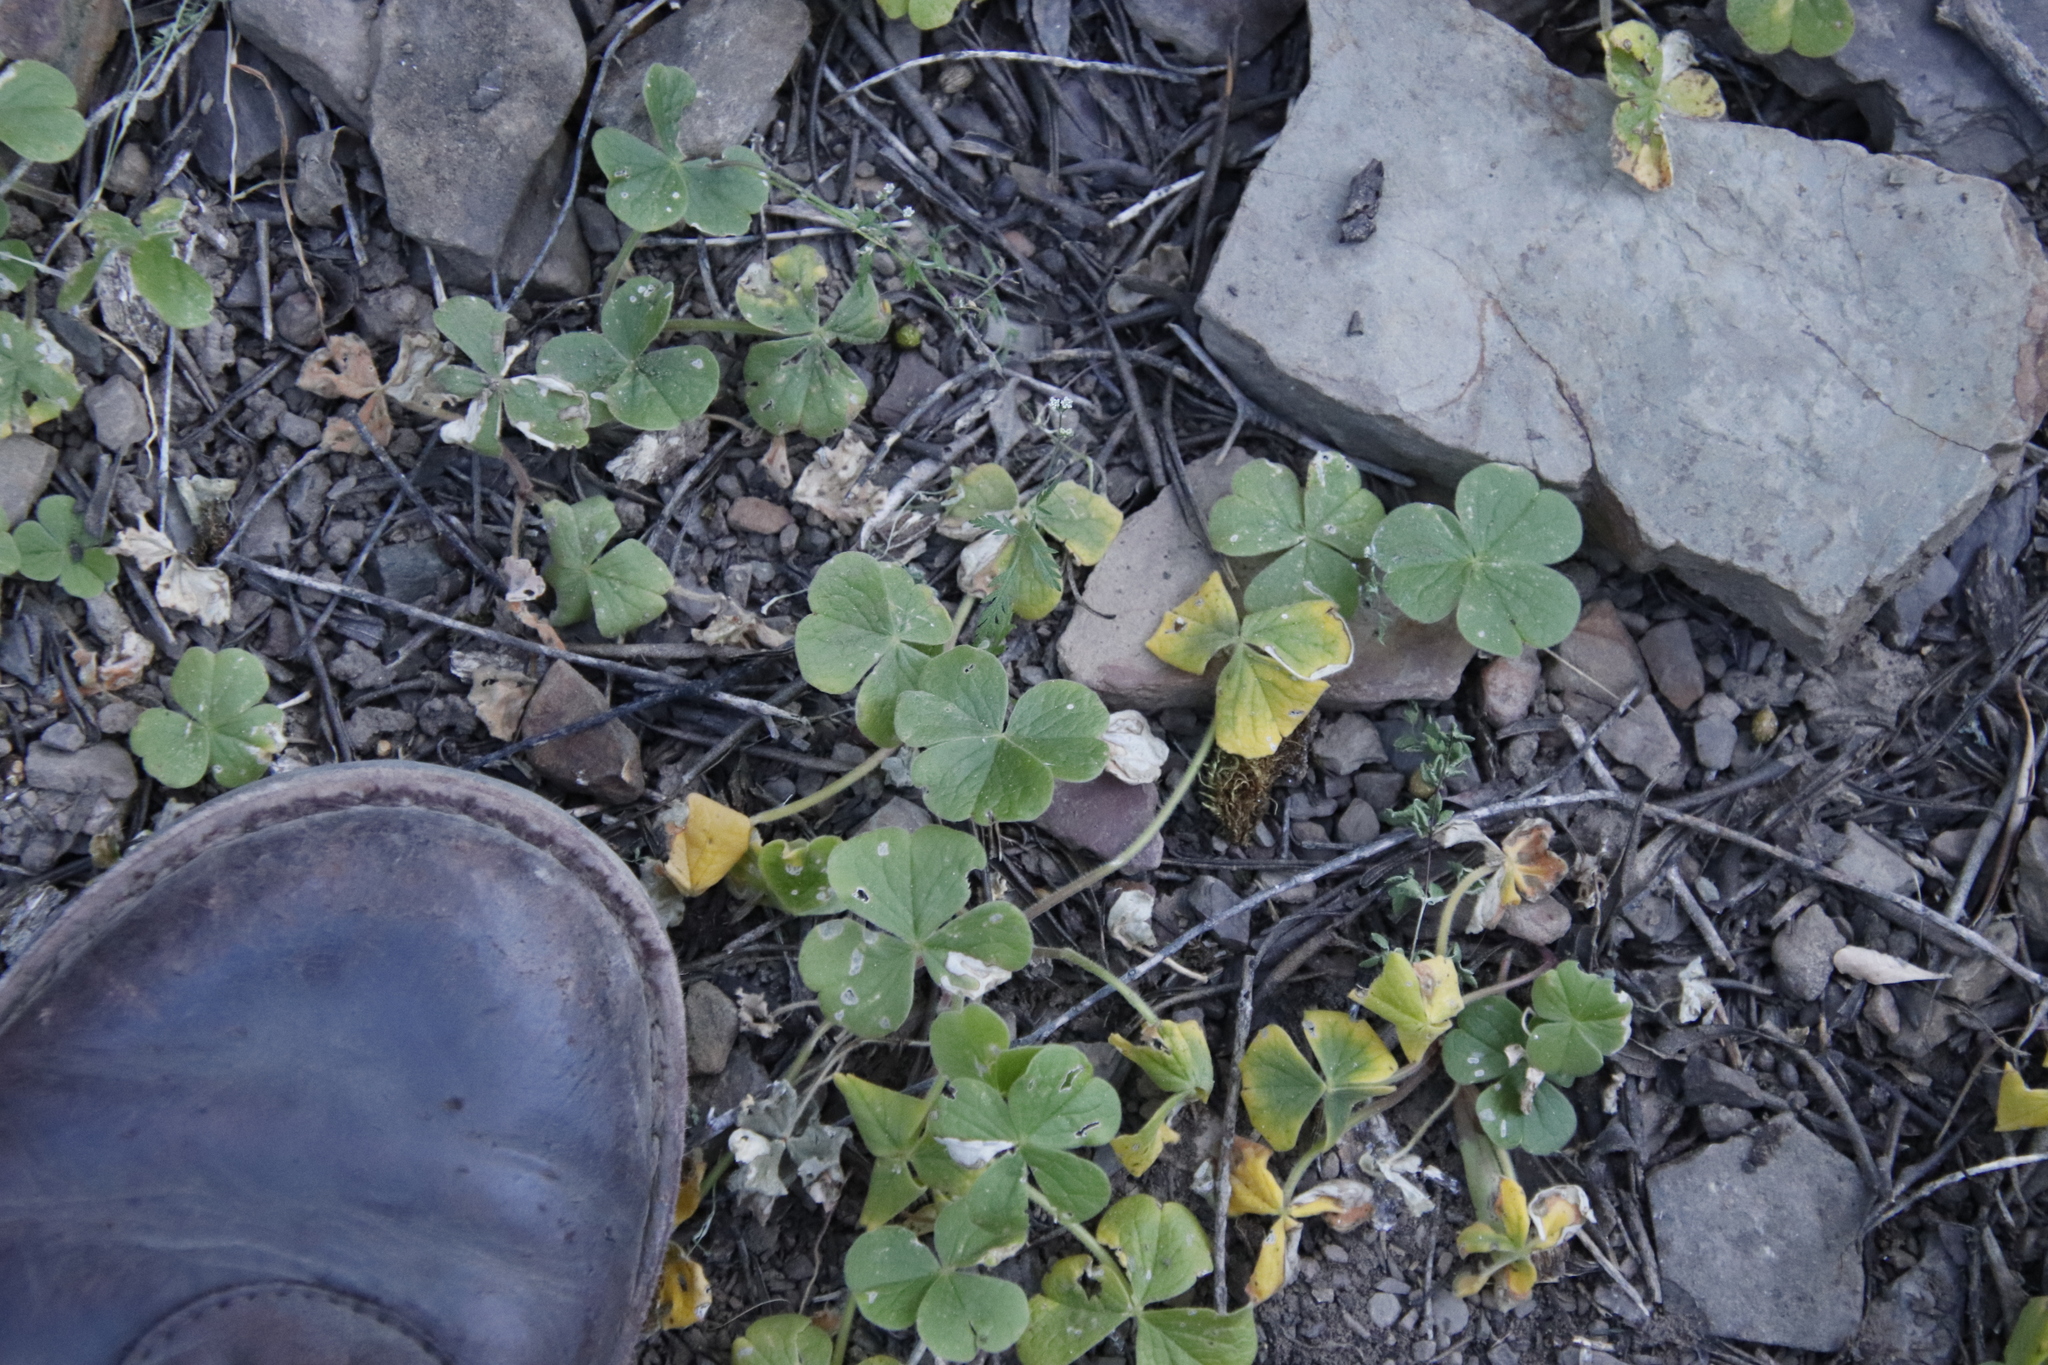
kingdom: Plantae
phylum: Tracheophyta
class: Magnoliopsida
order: Oxalidales
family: Oxalidaceae
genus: Oxalis
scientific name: Oxalis lasiorrhiza
